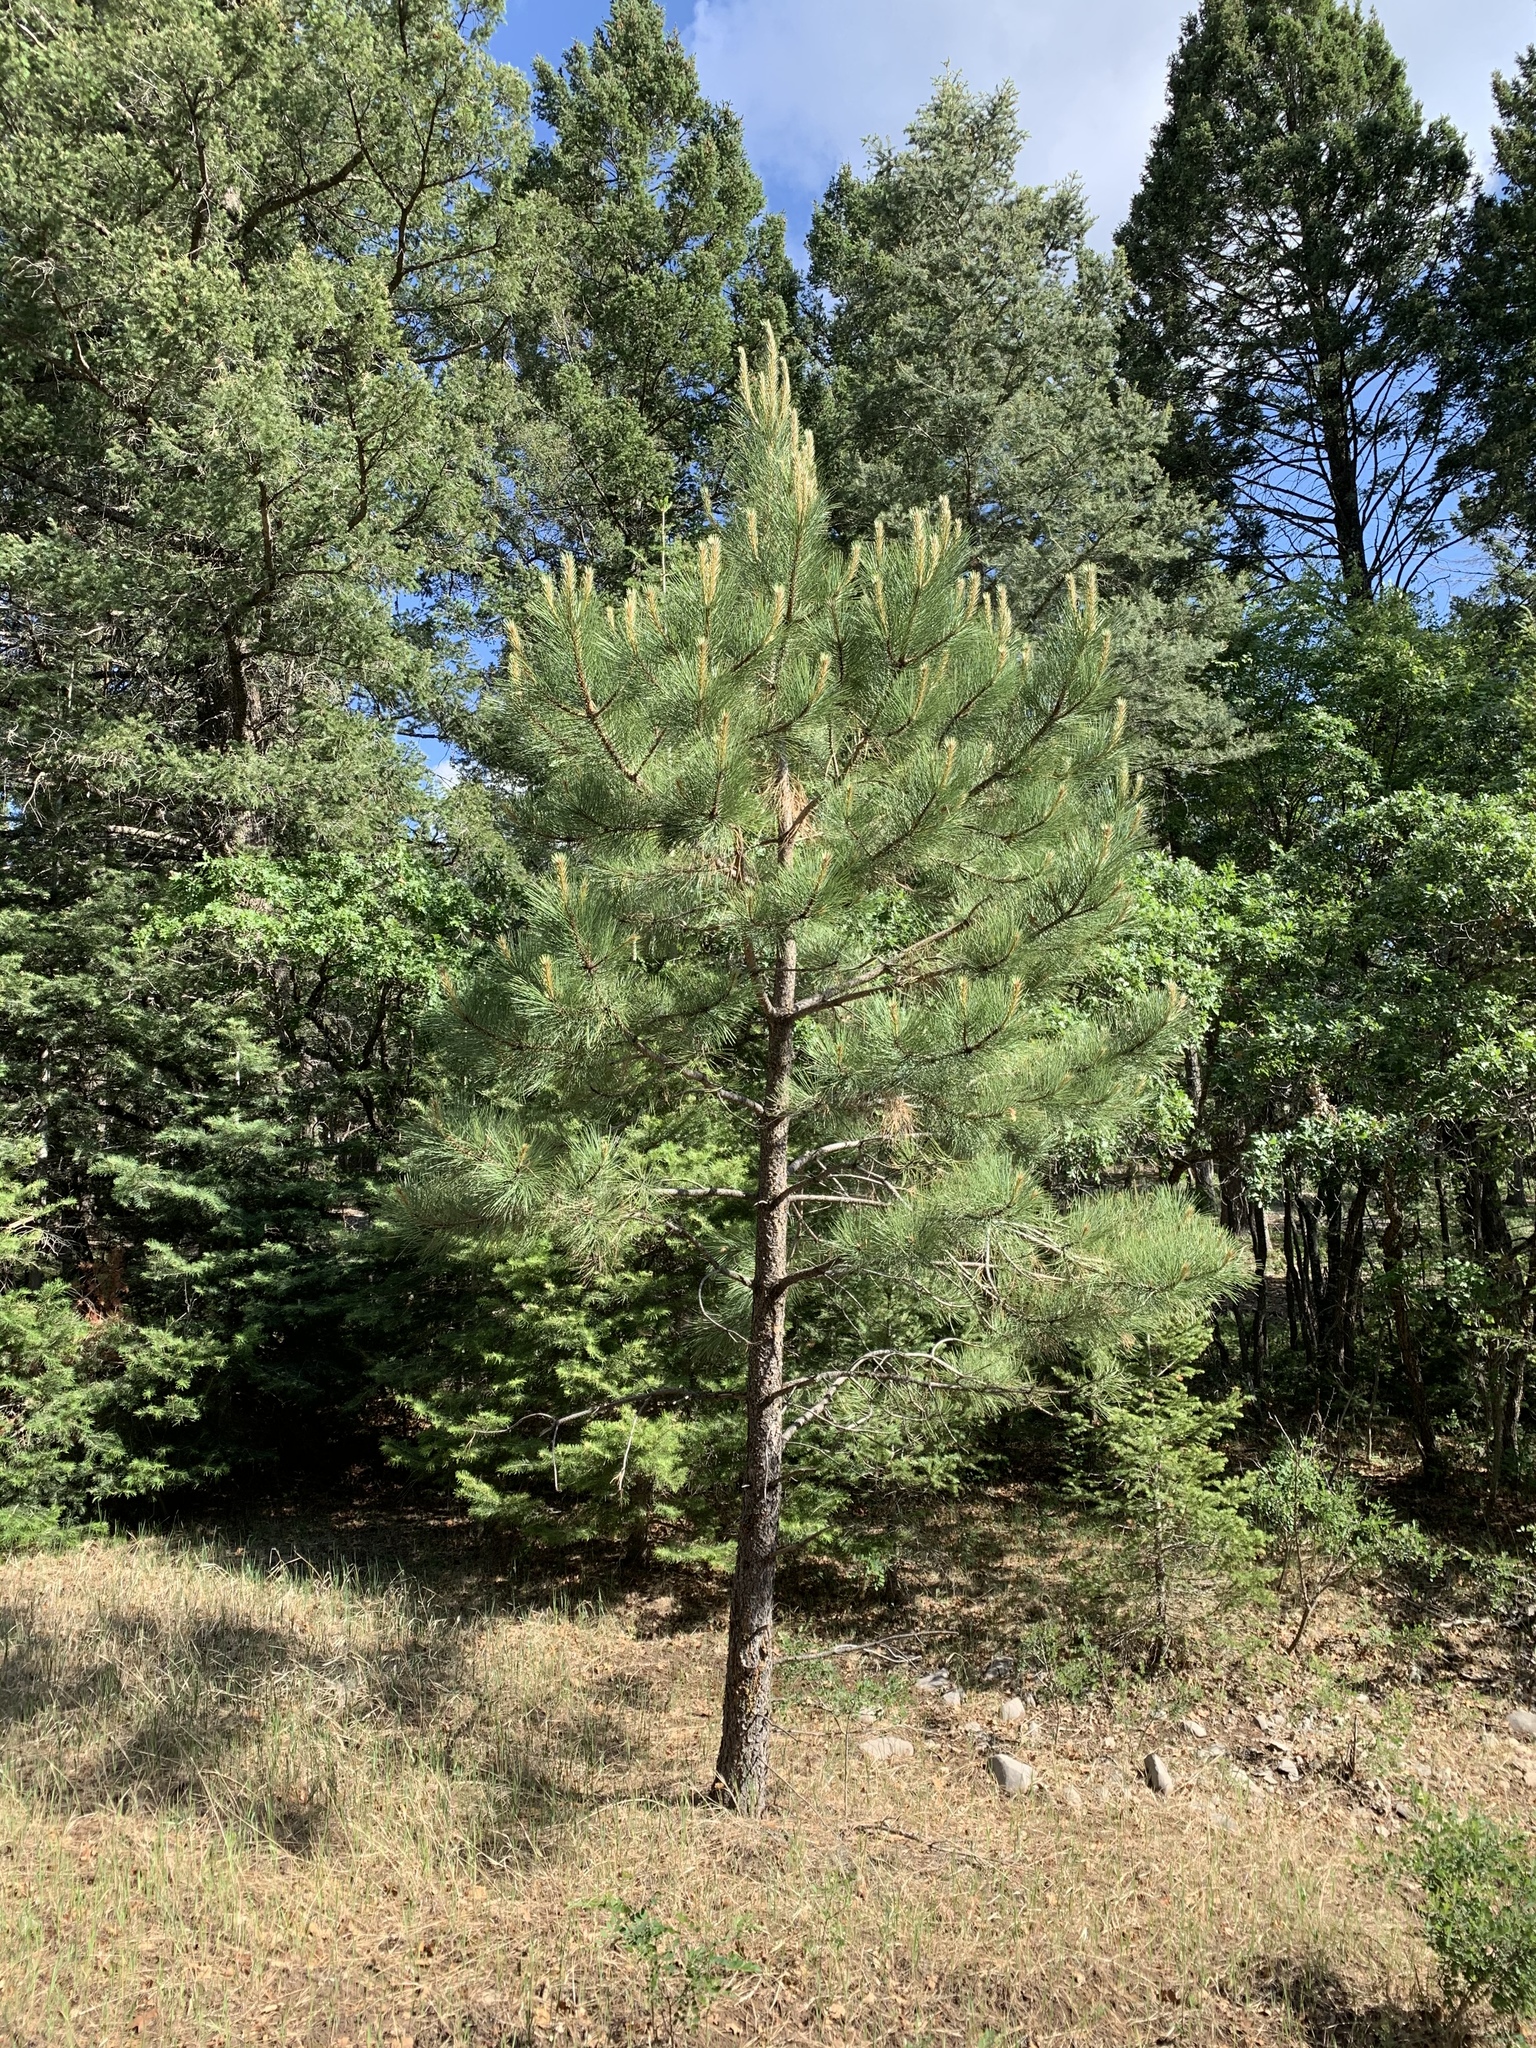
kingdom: Plantae
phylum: Tracheophyta
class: Pinopsida
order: Pinales
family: Pinaceae
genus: Pinus
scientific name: Pinus ponderosa
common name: Western yellow-pine
